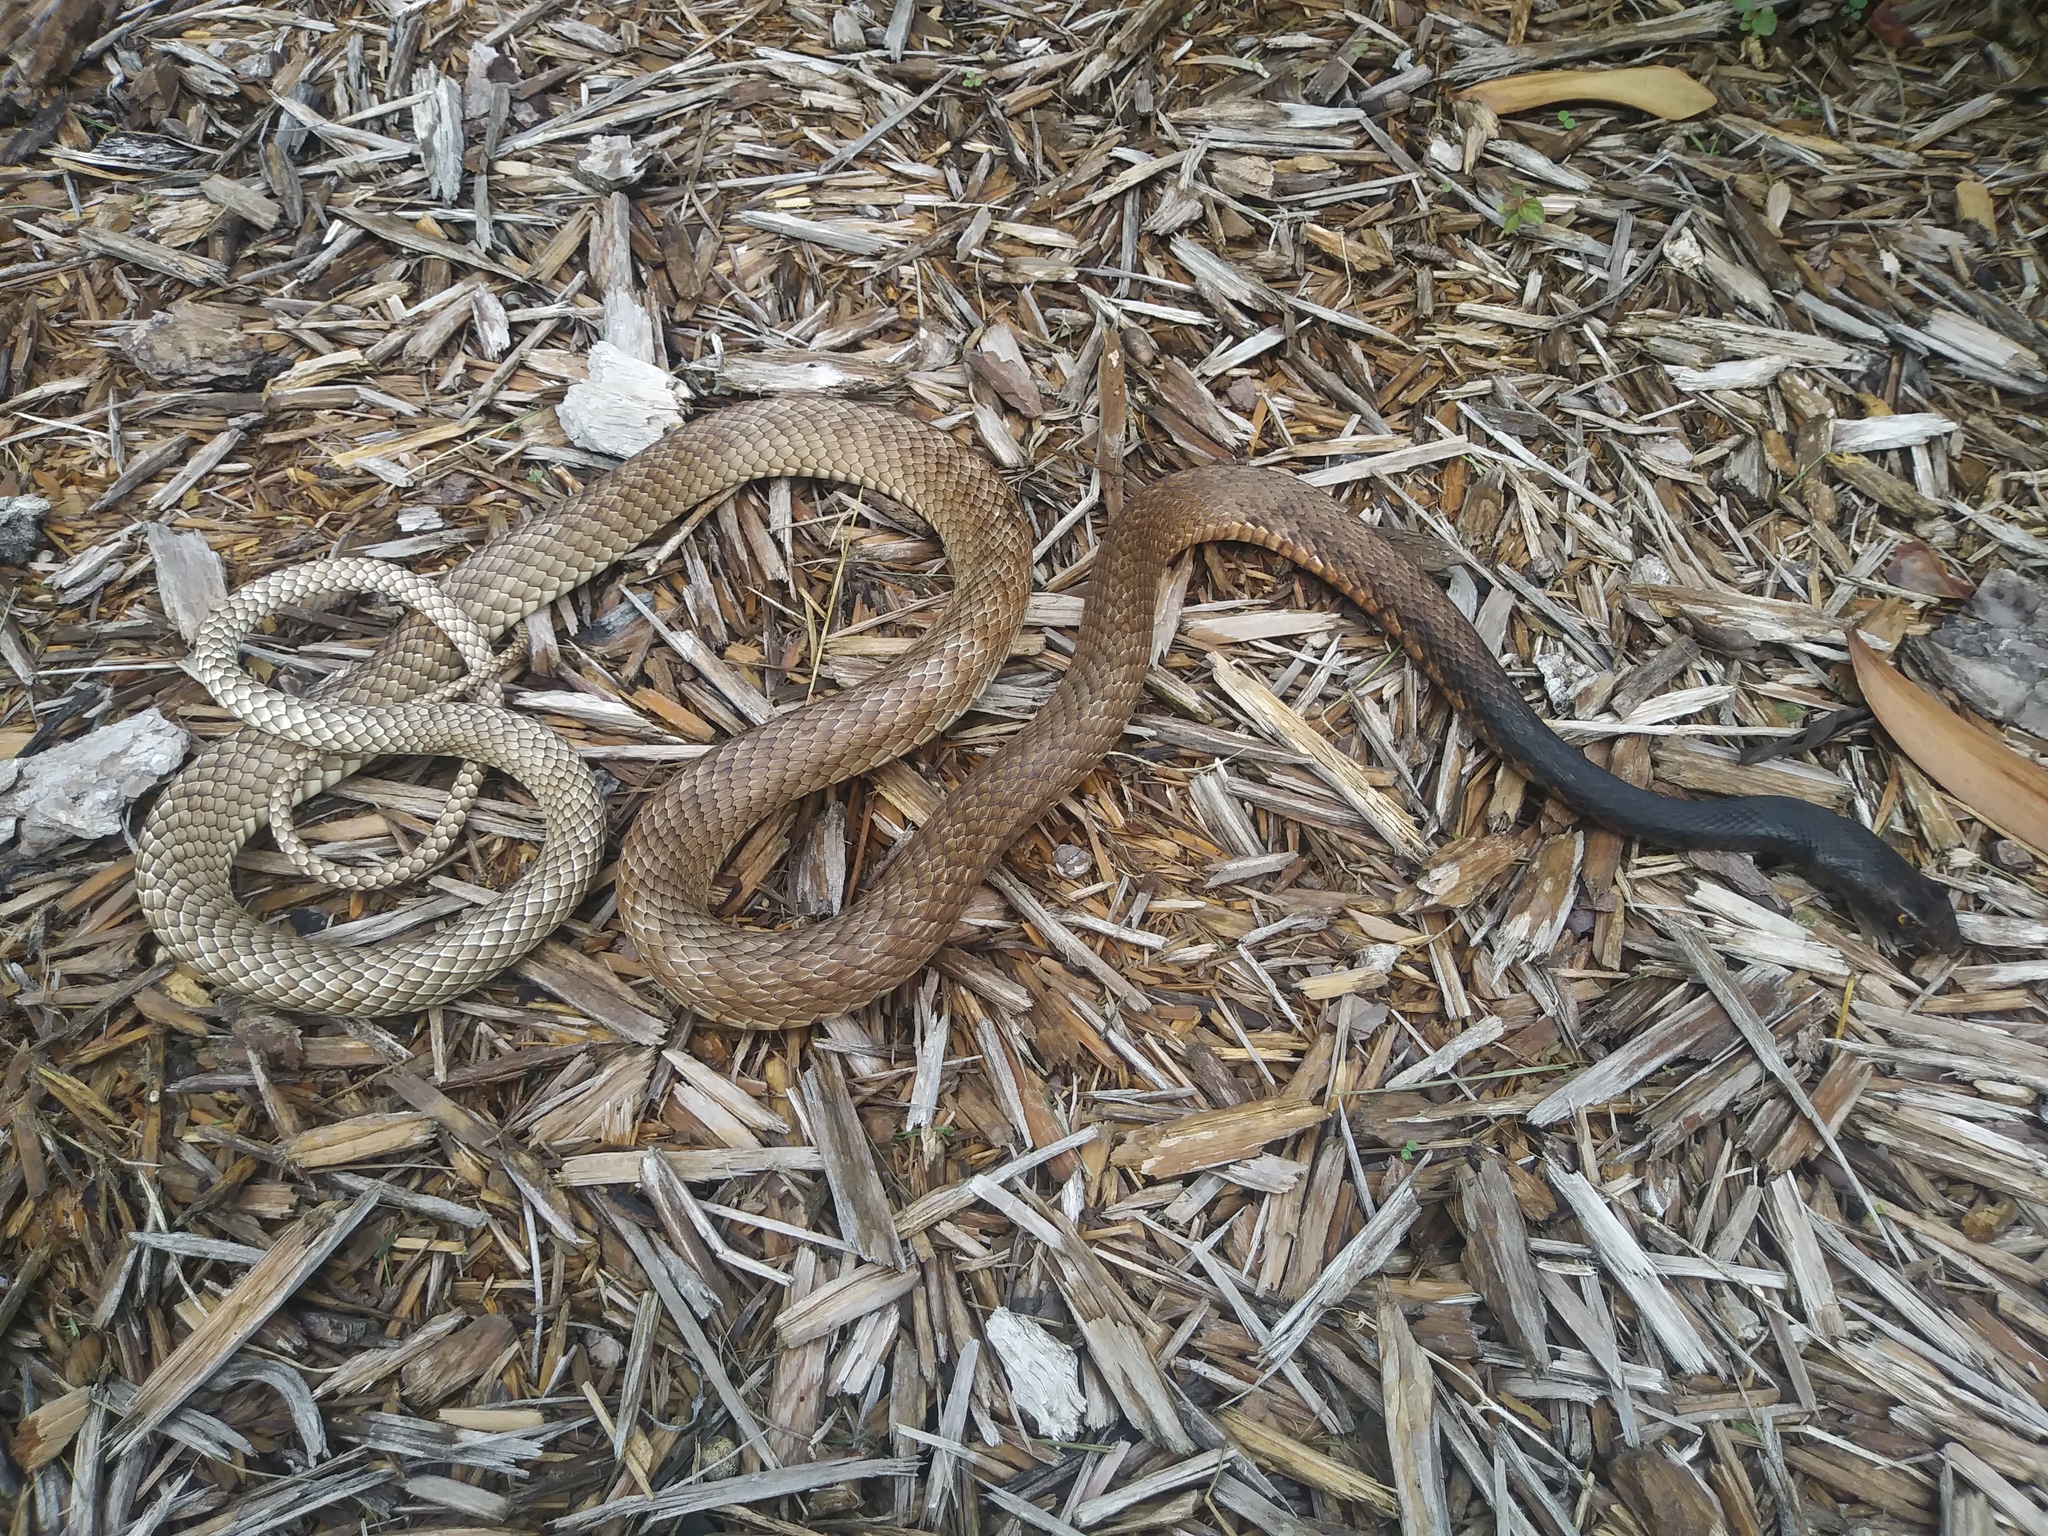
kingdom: Animalia
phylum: Chordata
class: Squamata
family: Colubridae
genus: Masticophis
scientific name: Masticophis flagellum
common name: Coachwhip
